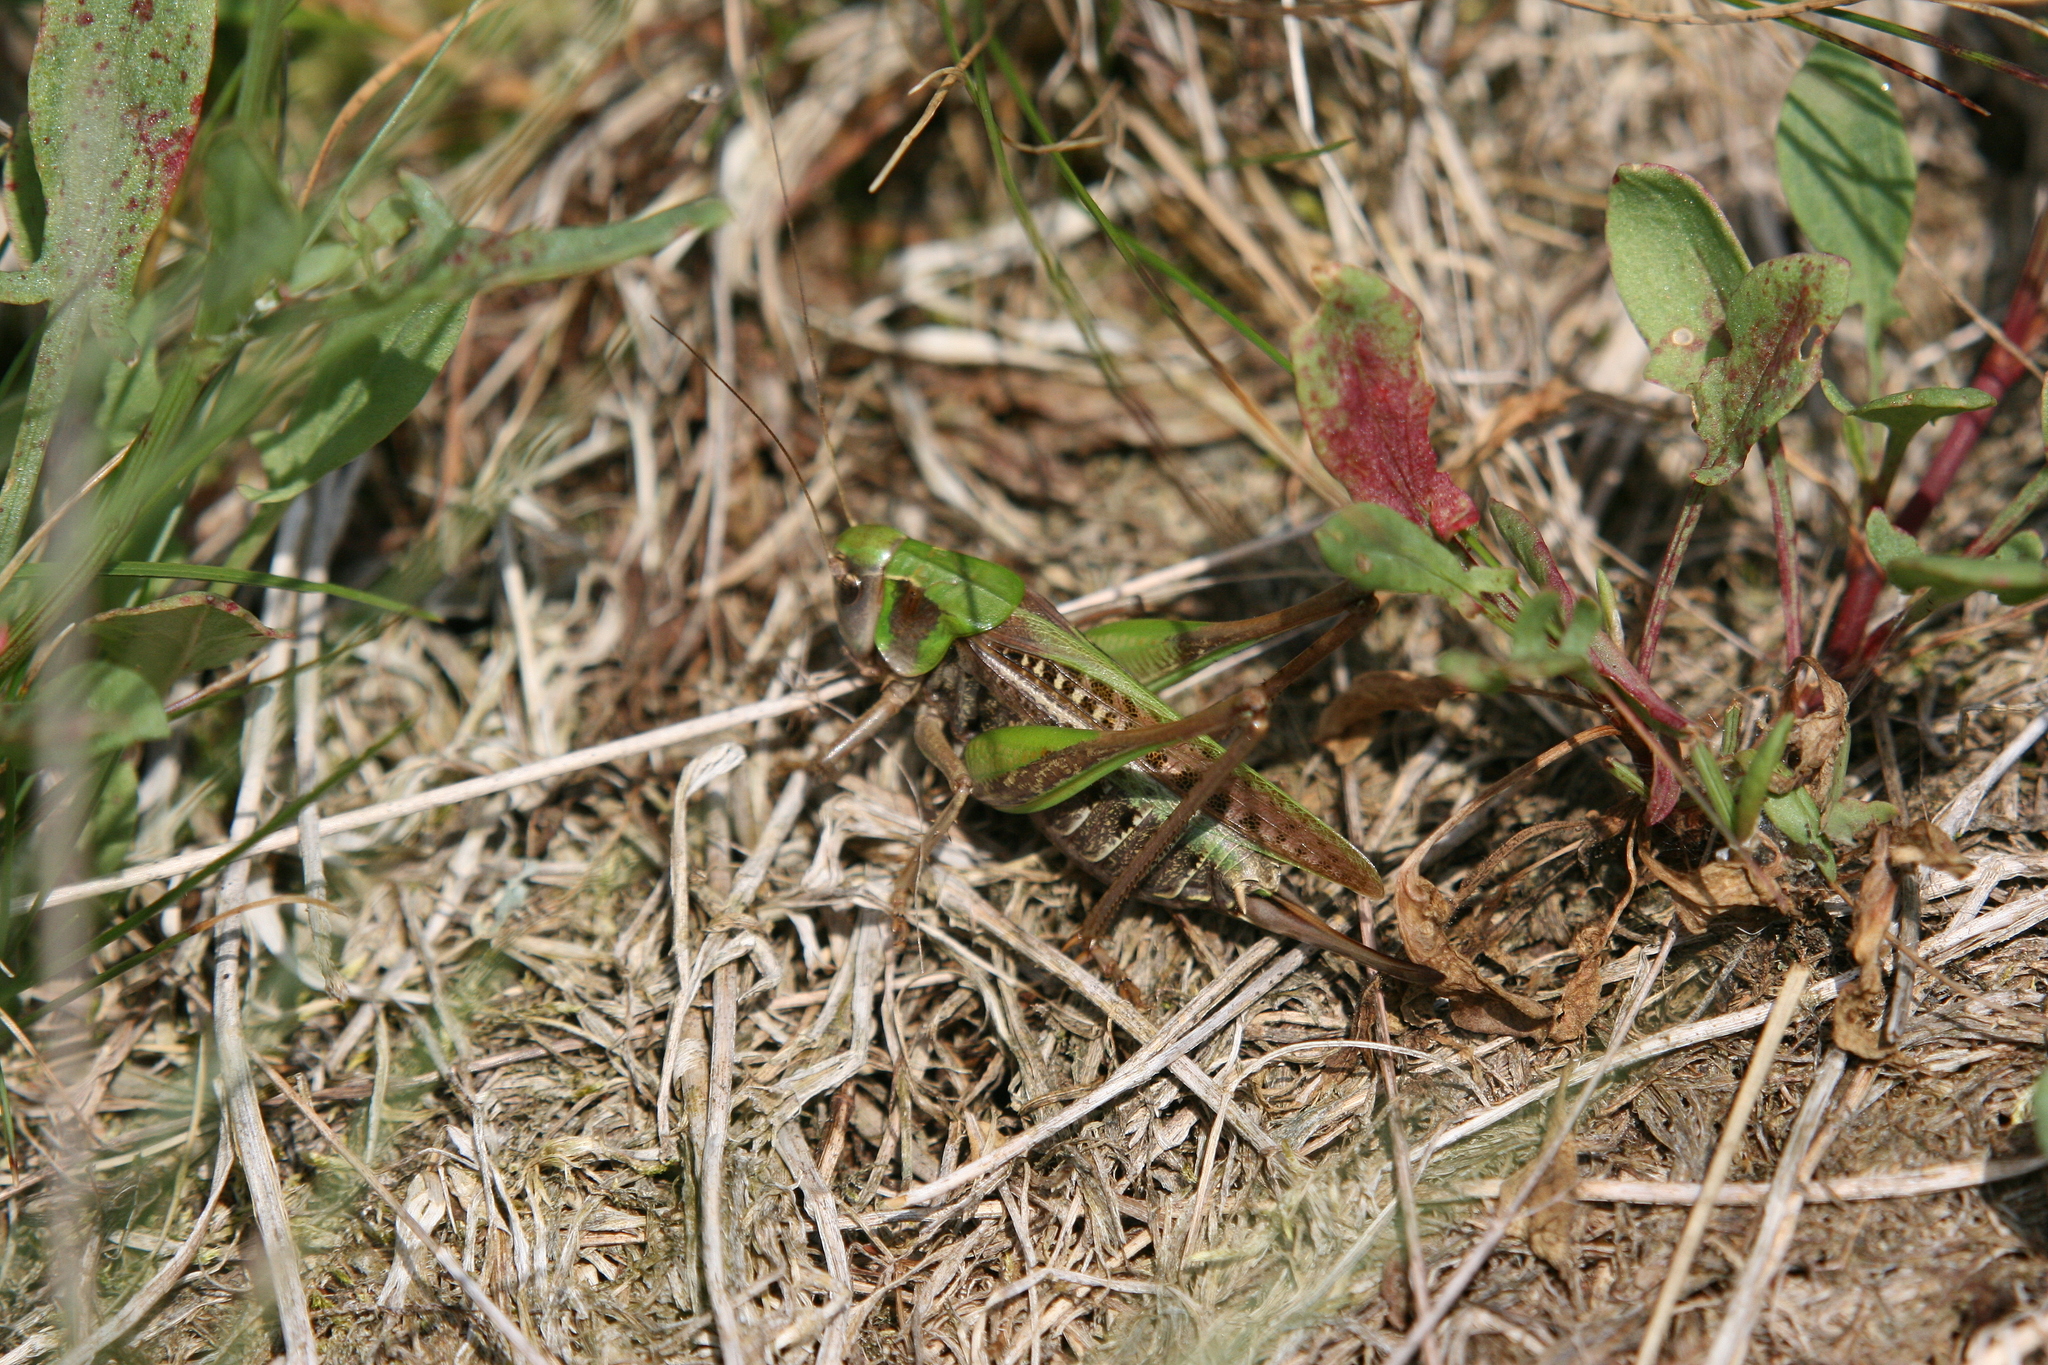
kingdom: Animalia
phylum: Arthropoda
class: Insecta
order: Orthoptera
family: Tettigoniidae
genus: Decticus
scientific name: Decticus verrucivorus
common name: Wart-biter
